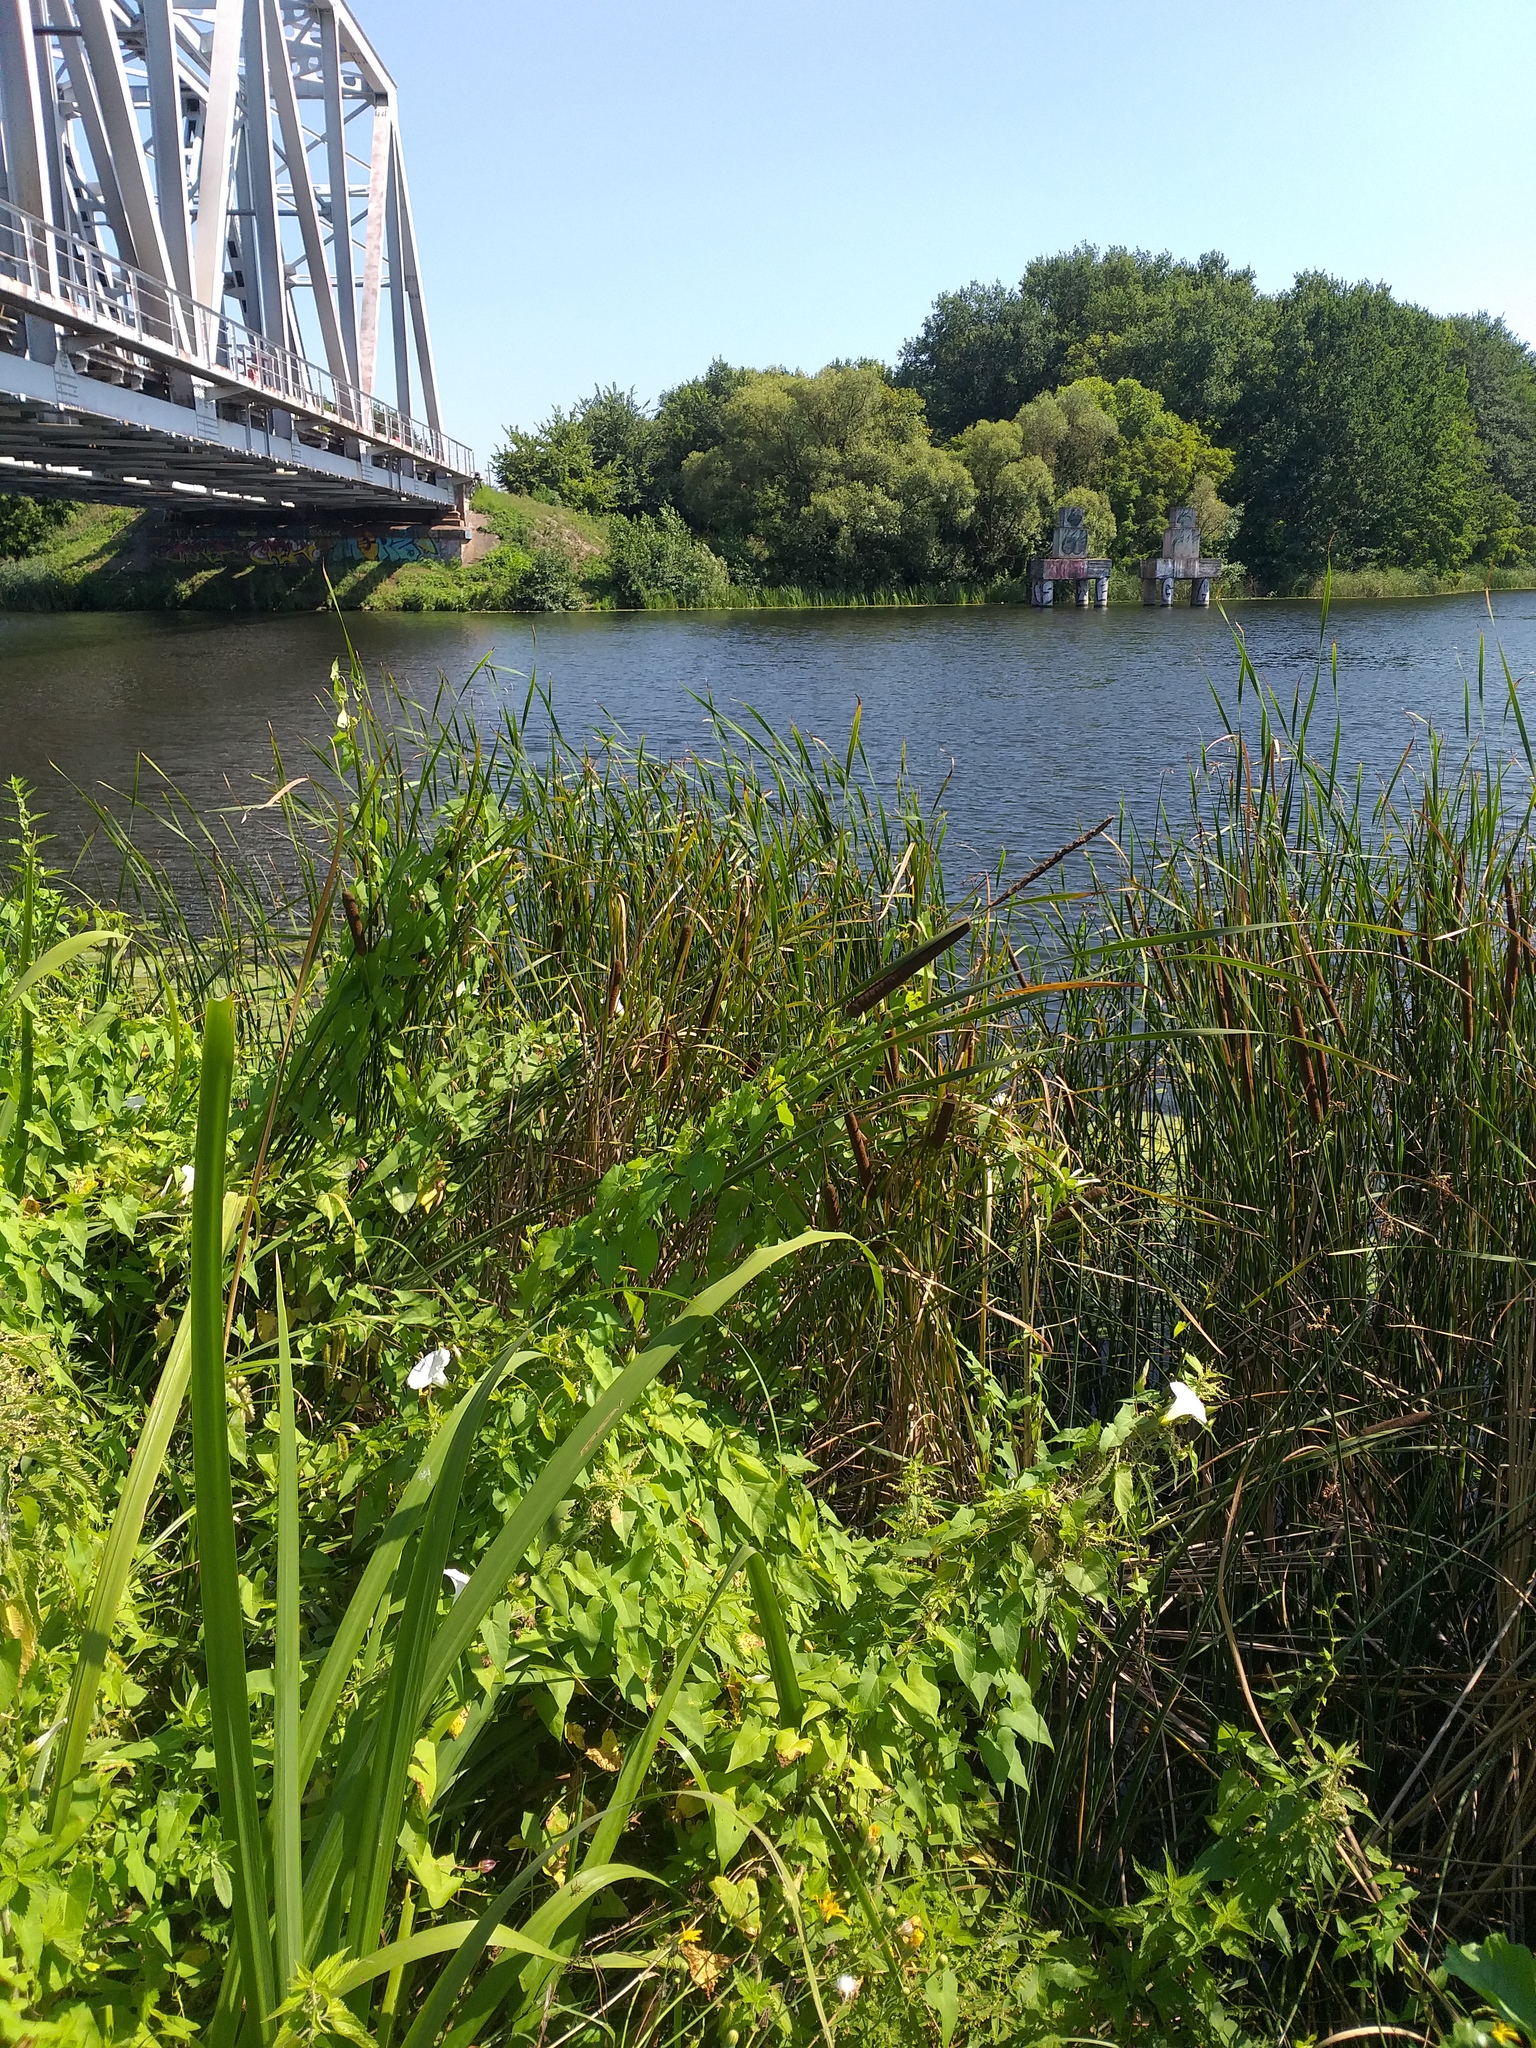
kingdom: Plantae
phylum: Tracheophyta
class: Liliopsida
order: Poales
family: Typhaceae
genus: Typha
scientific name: Typha angustifolia
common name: Lesser bulrush
